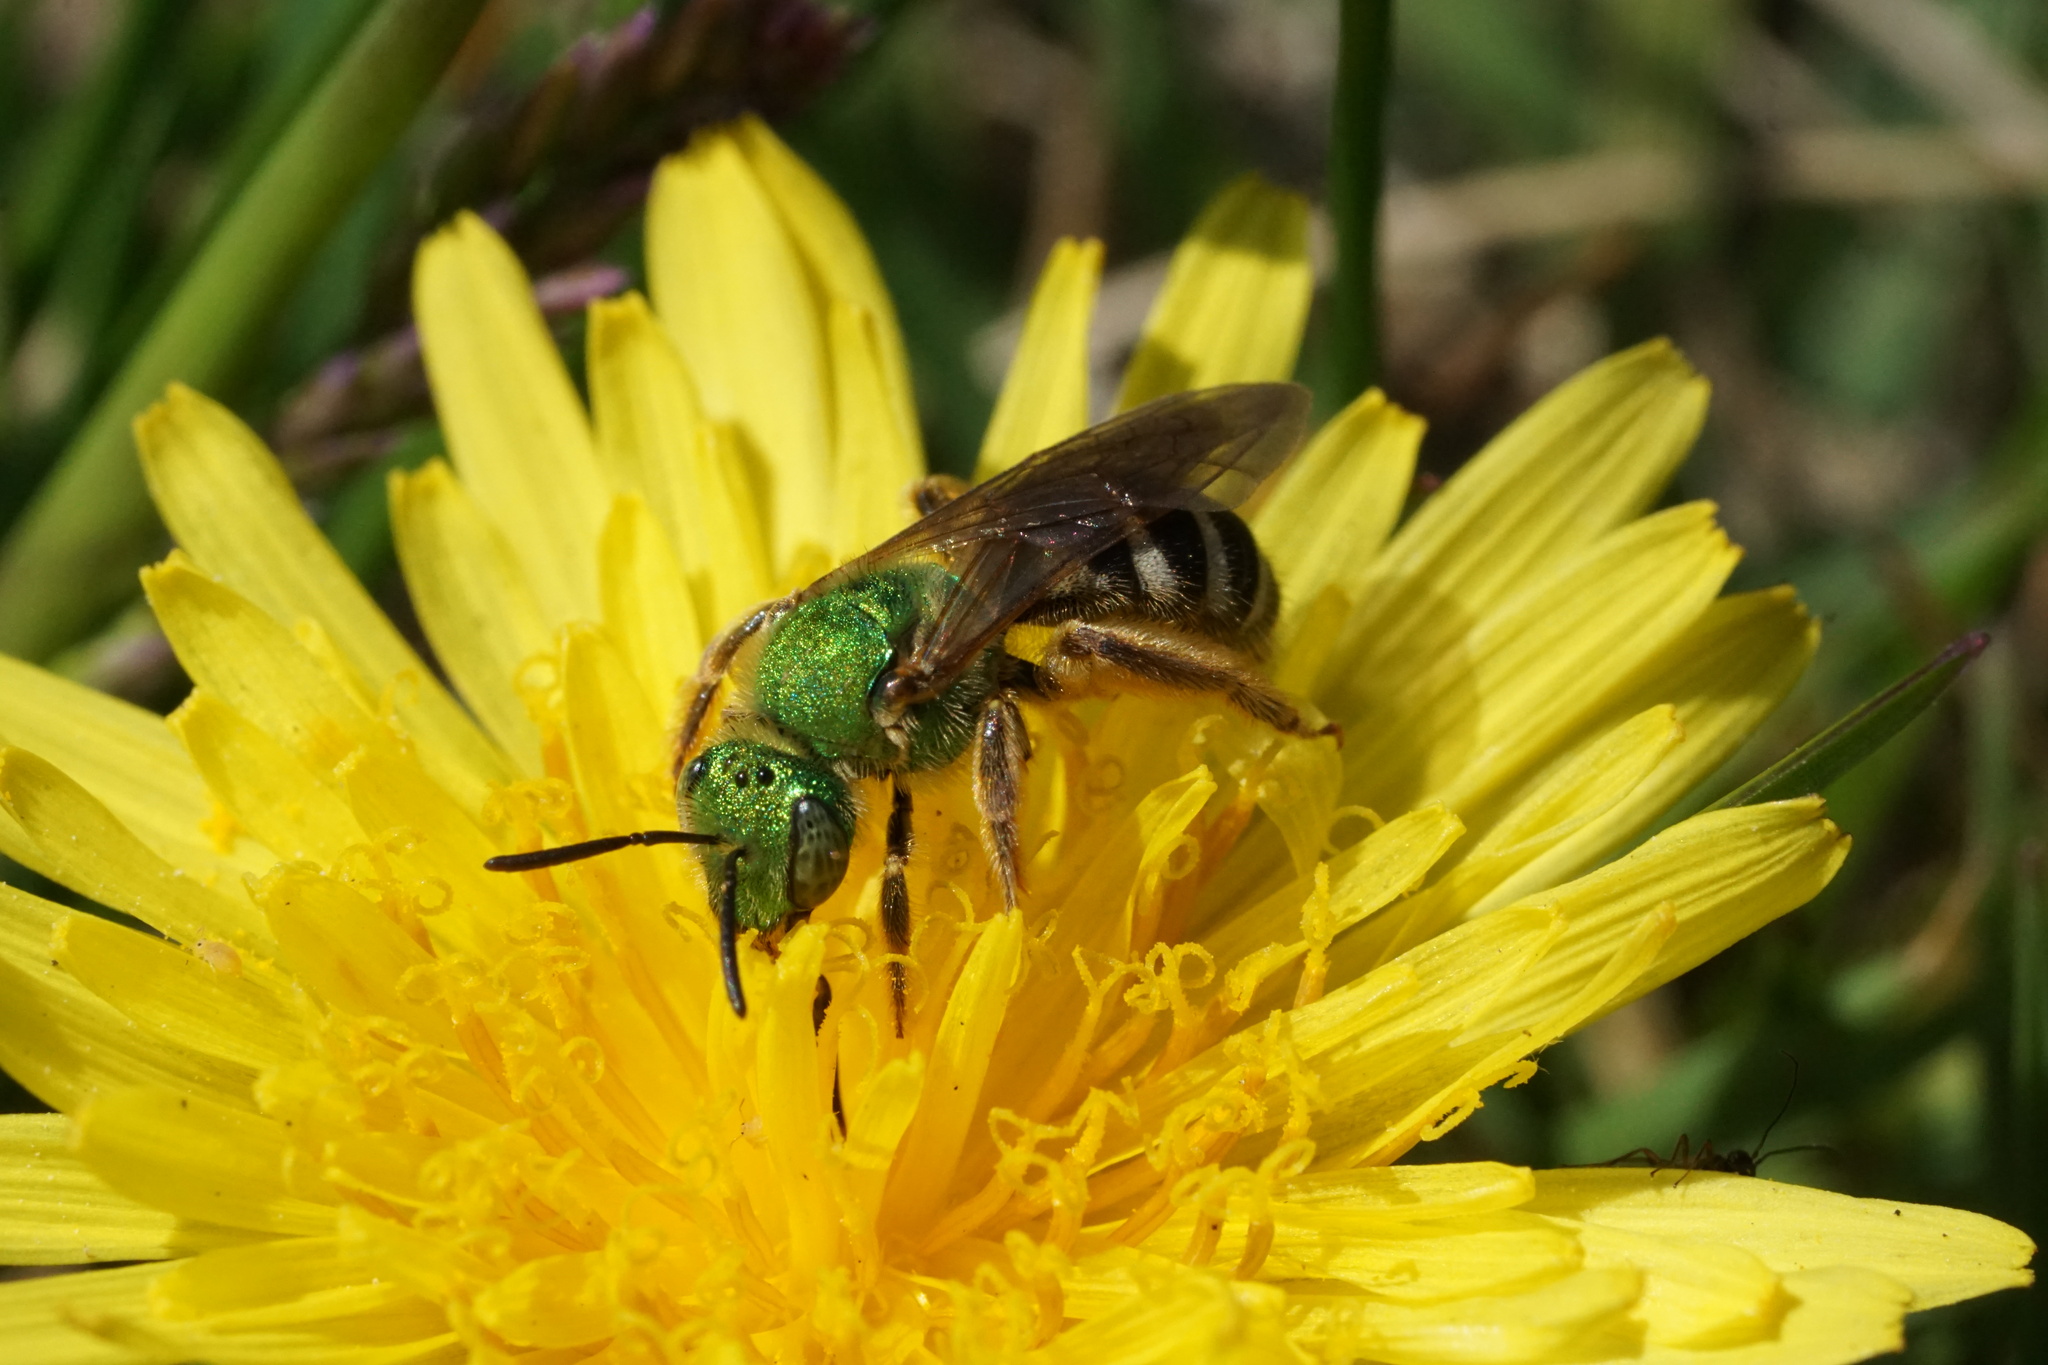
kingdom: Animalia
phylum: Arthropoda
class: Insecta
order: Hymenoptera
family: Halictidae
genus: Agapostemon
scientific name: Agapostemon virescens
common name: Bicolored striped sweat bee
